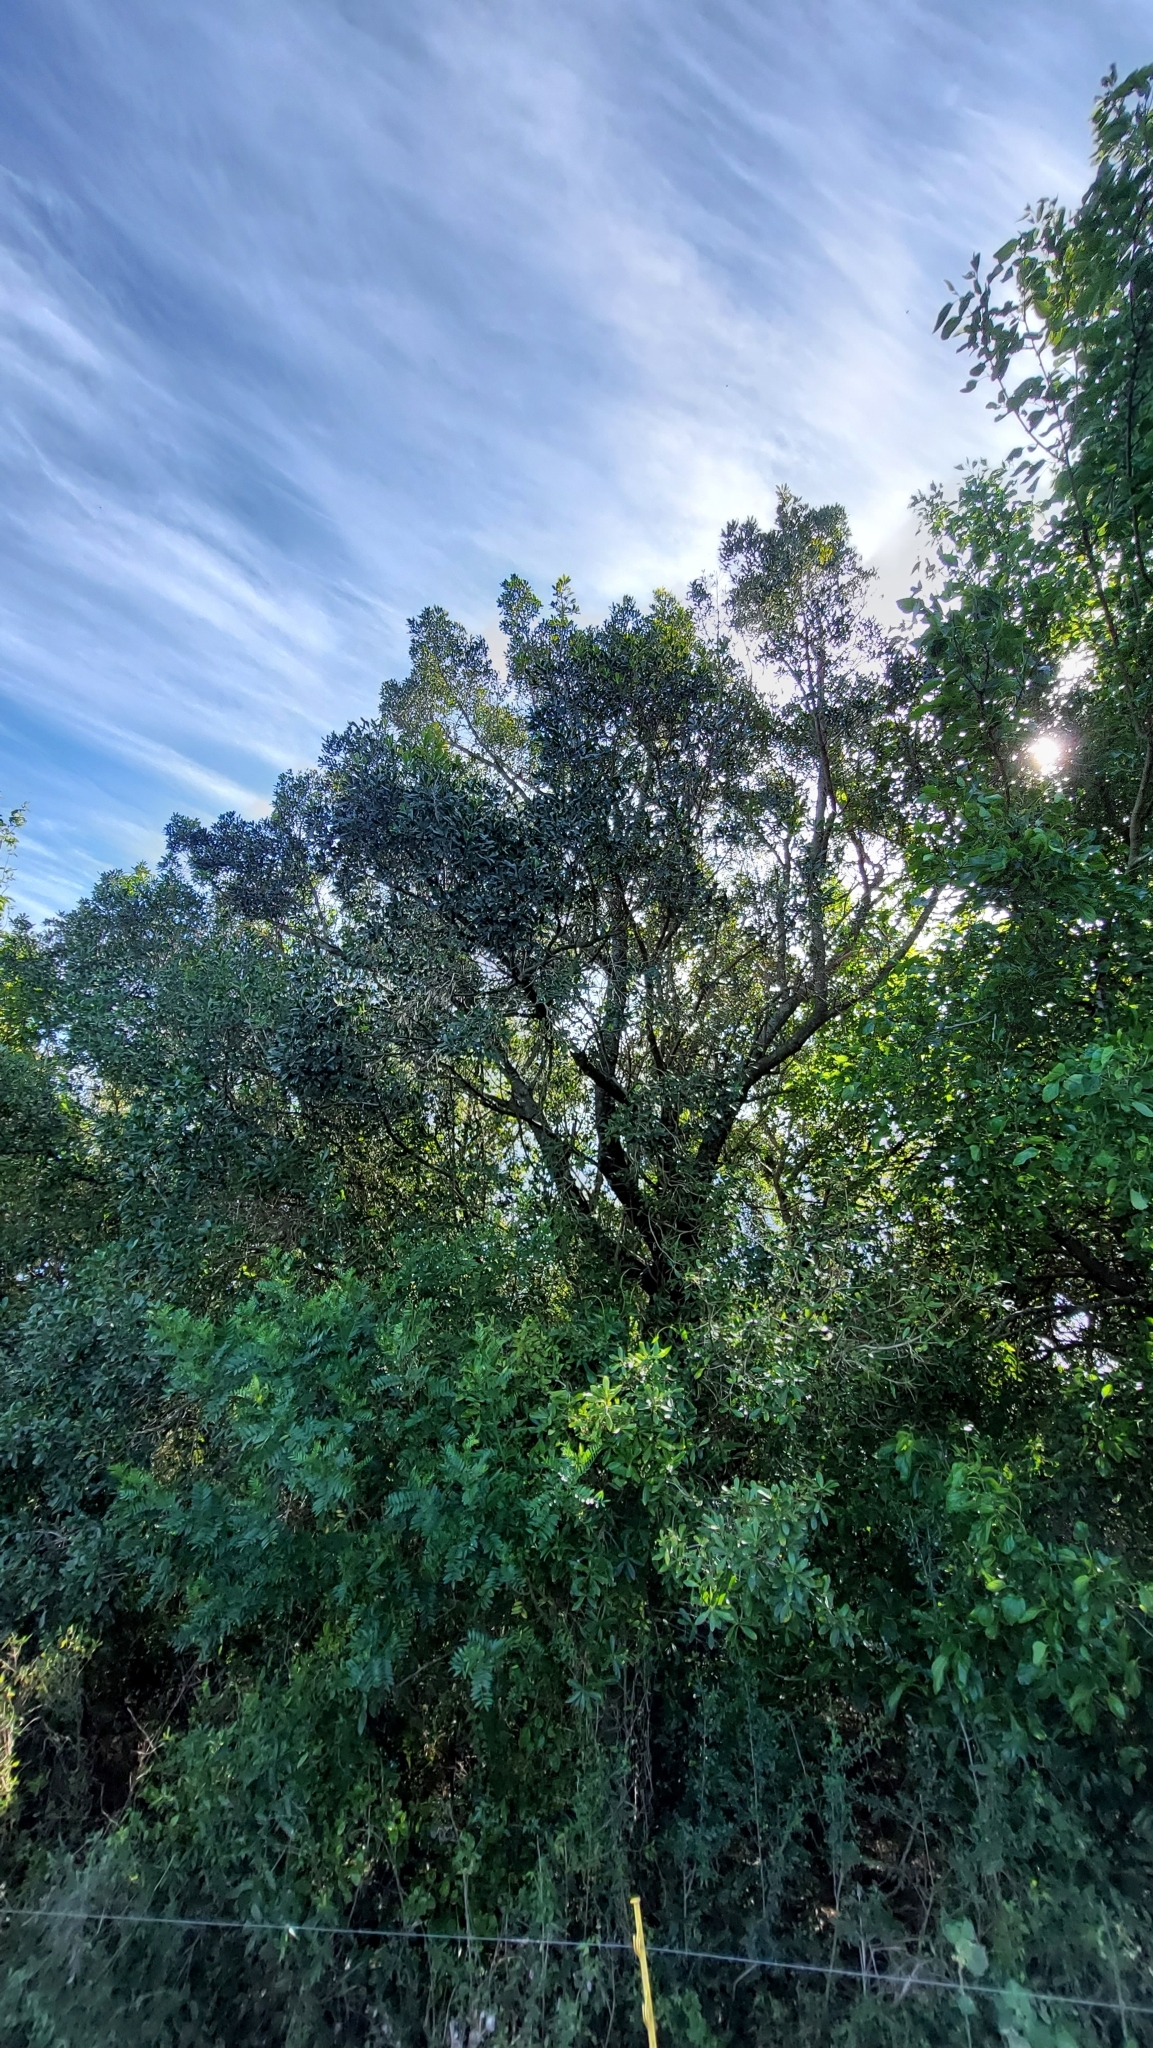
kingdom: Plantae
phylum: Tracheophyta
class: Magnoliopsida
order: Ericales
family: Primulaceae
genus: Myrsine
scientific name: Myrsine laetevirens
